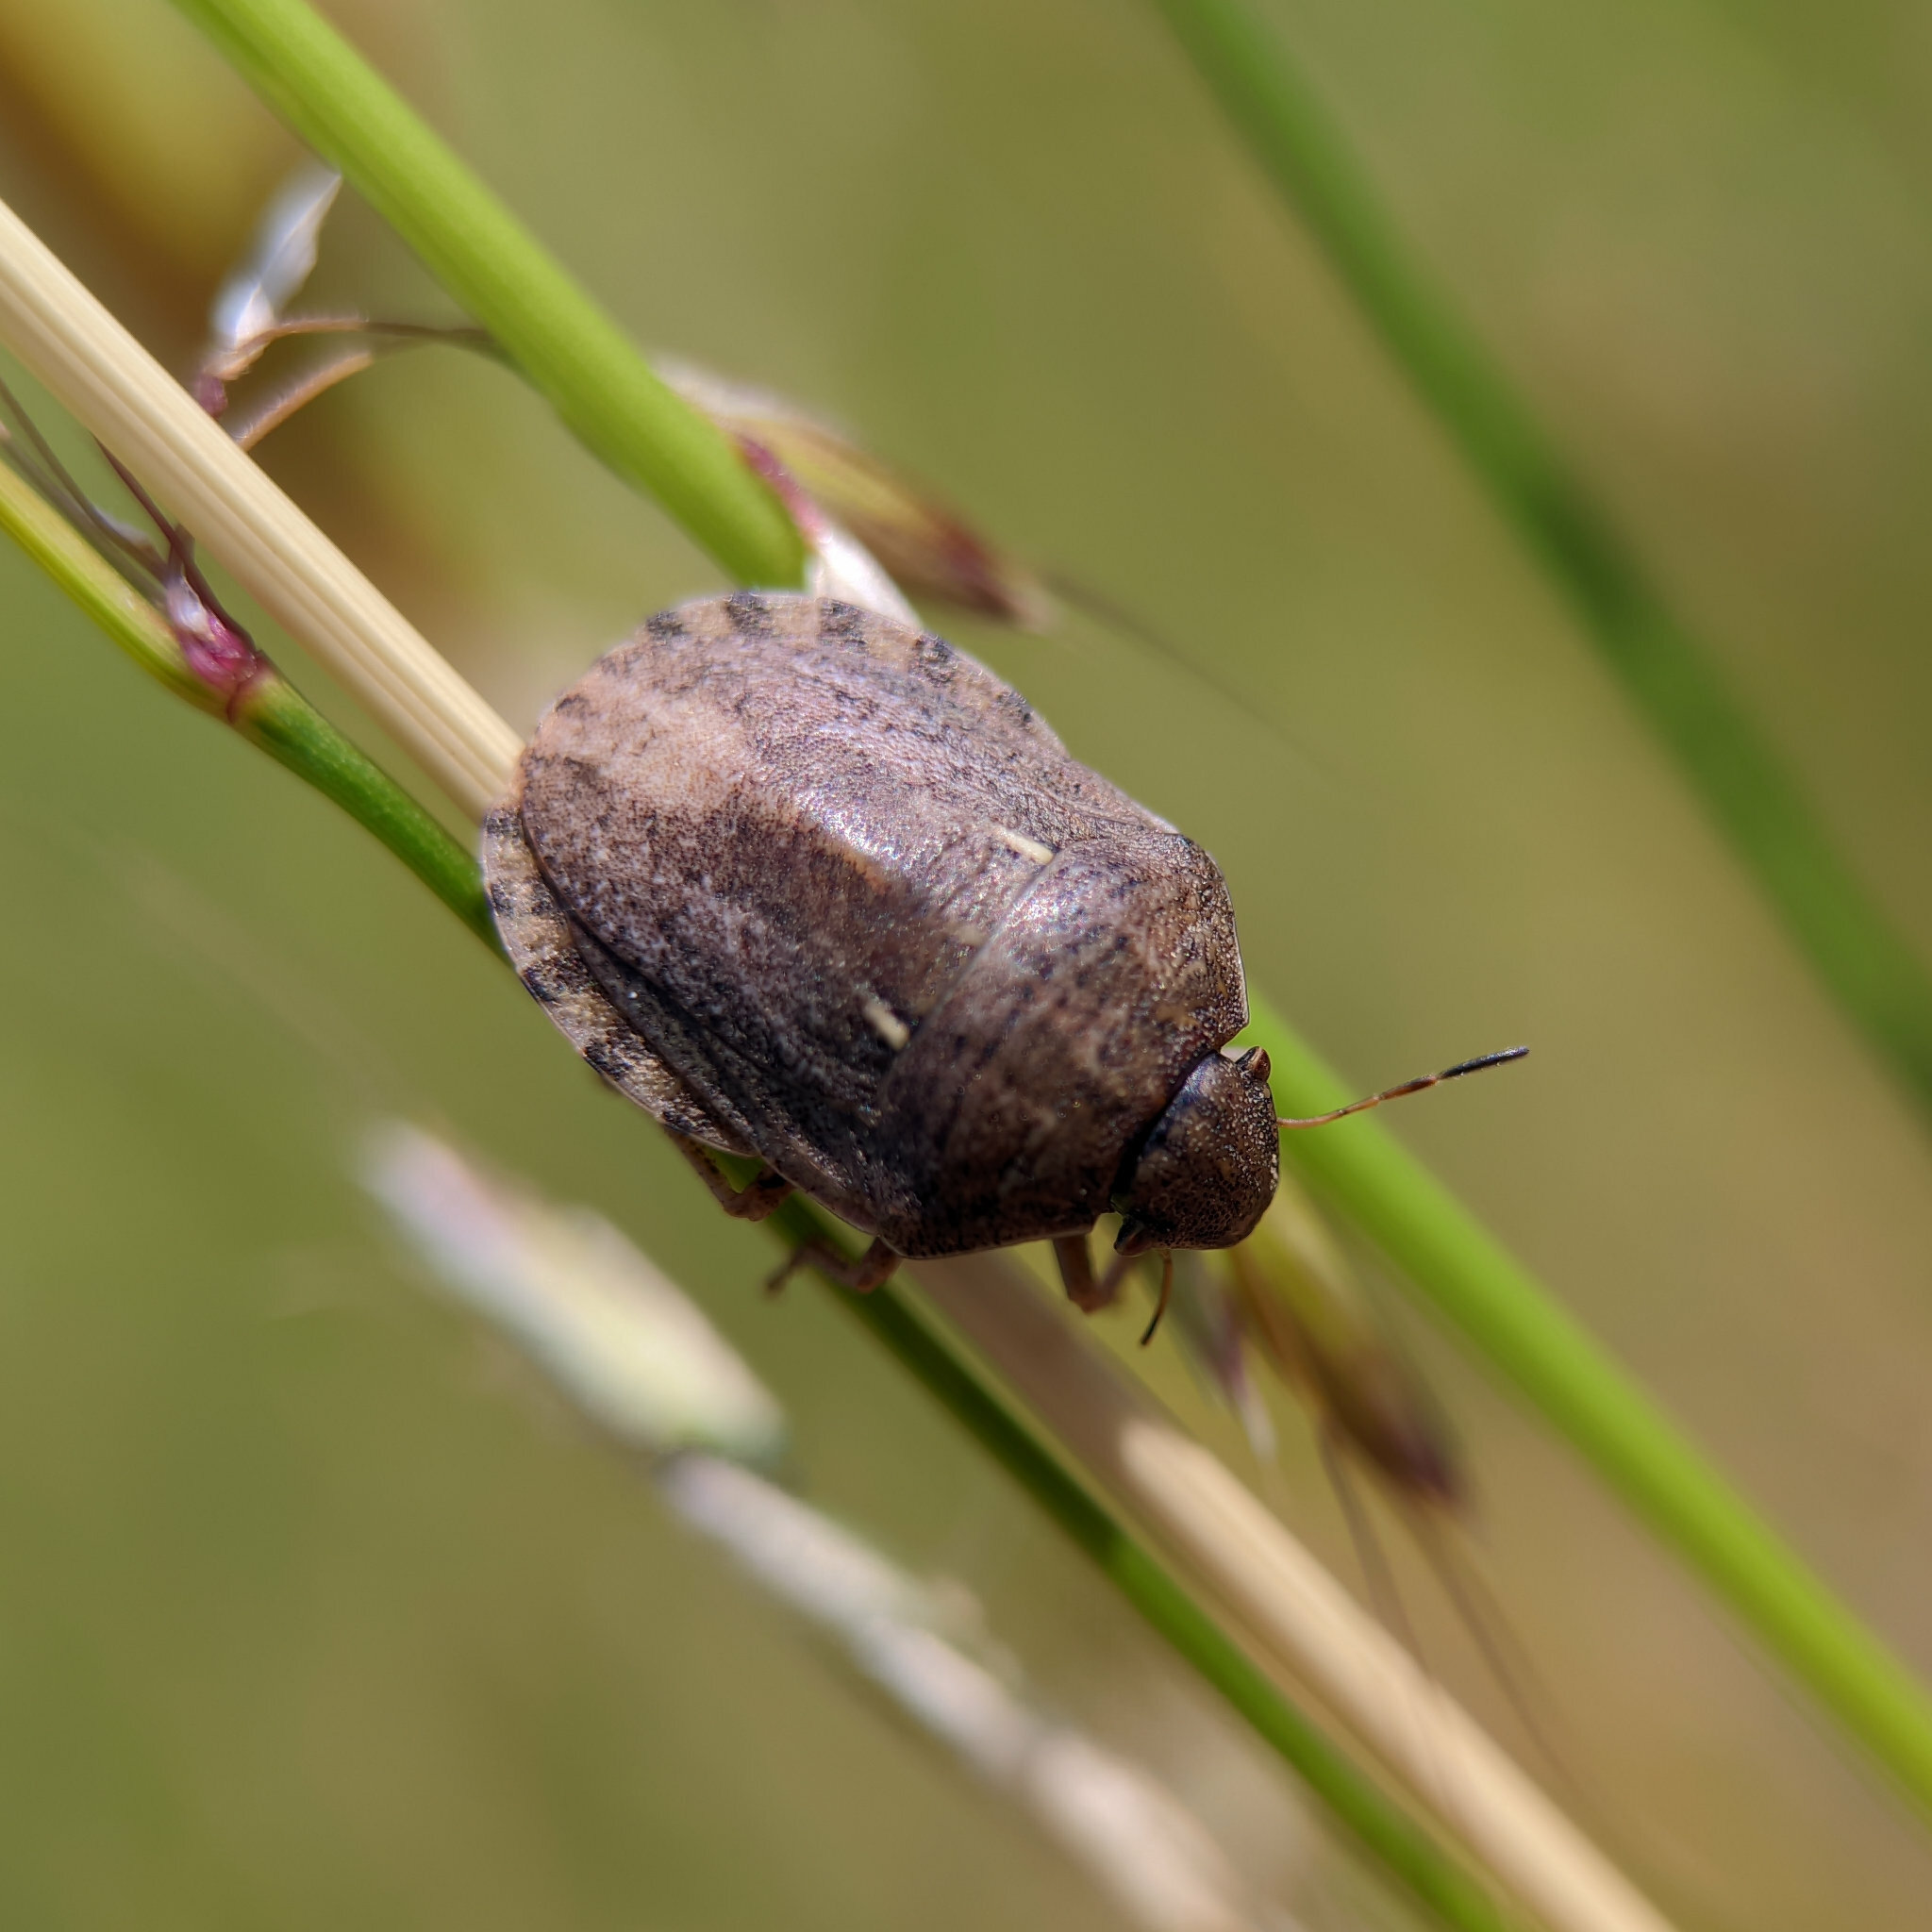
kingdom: Animalia
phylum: Arthropoda
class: Insecta
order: Hemiptera
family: Scutelleridae
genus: Eurygaster
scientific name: Eurygaster maura
